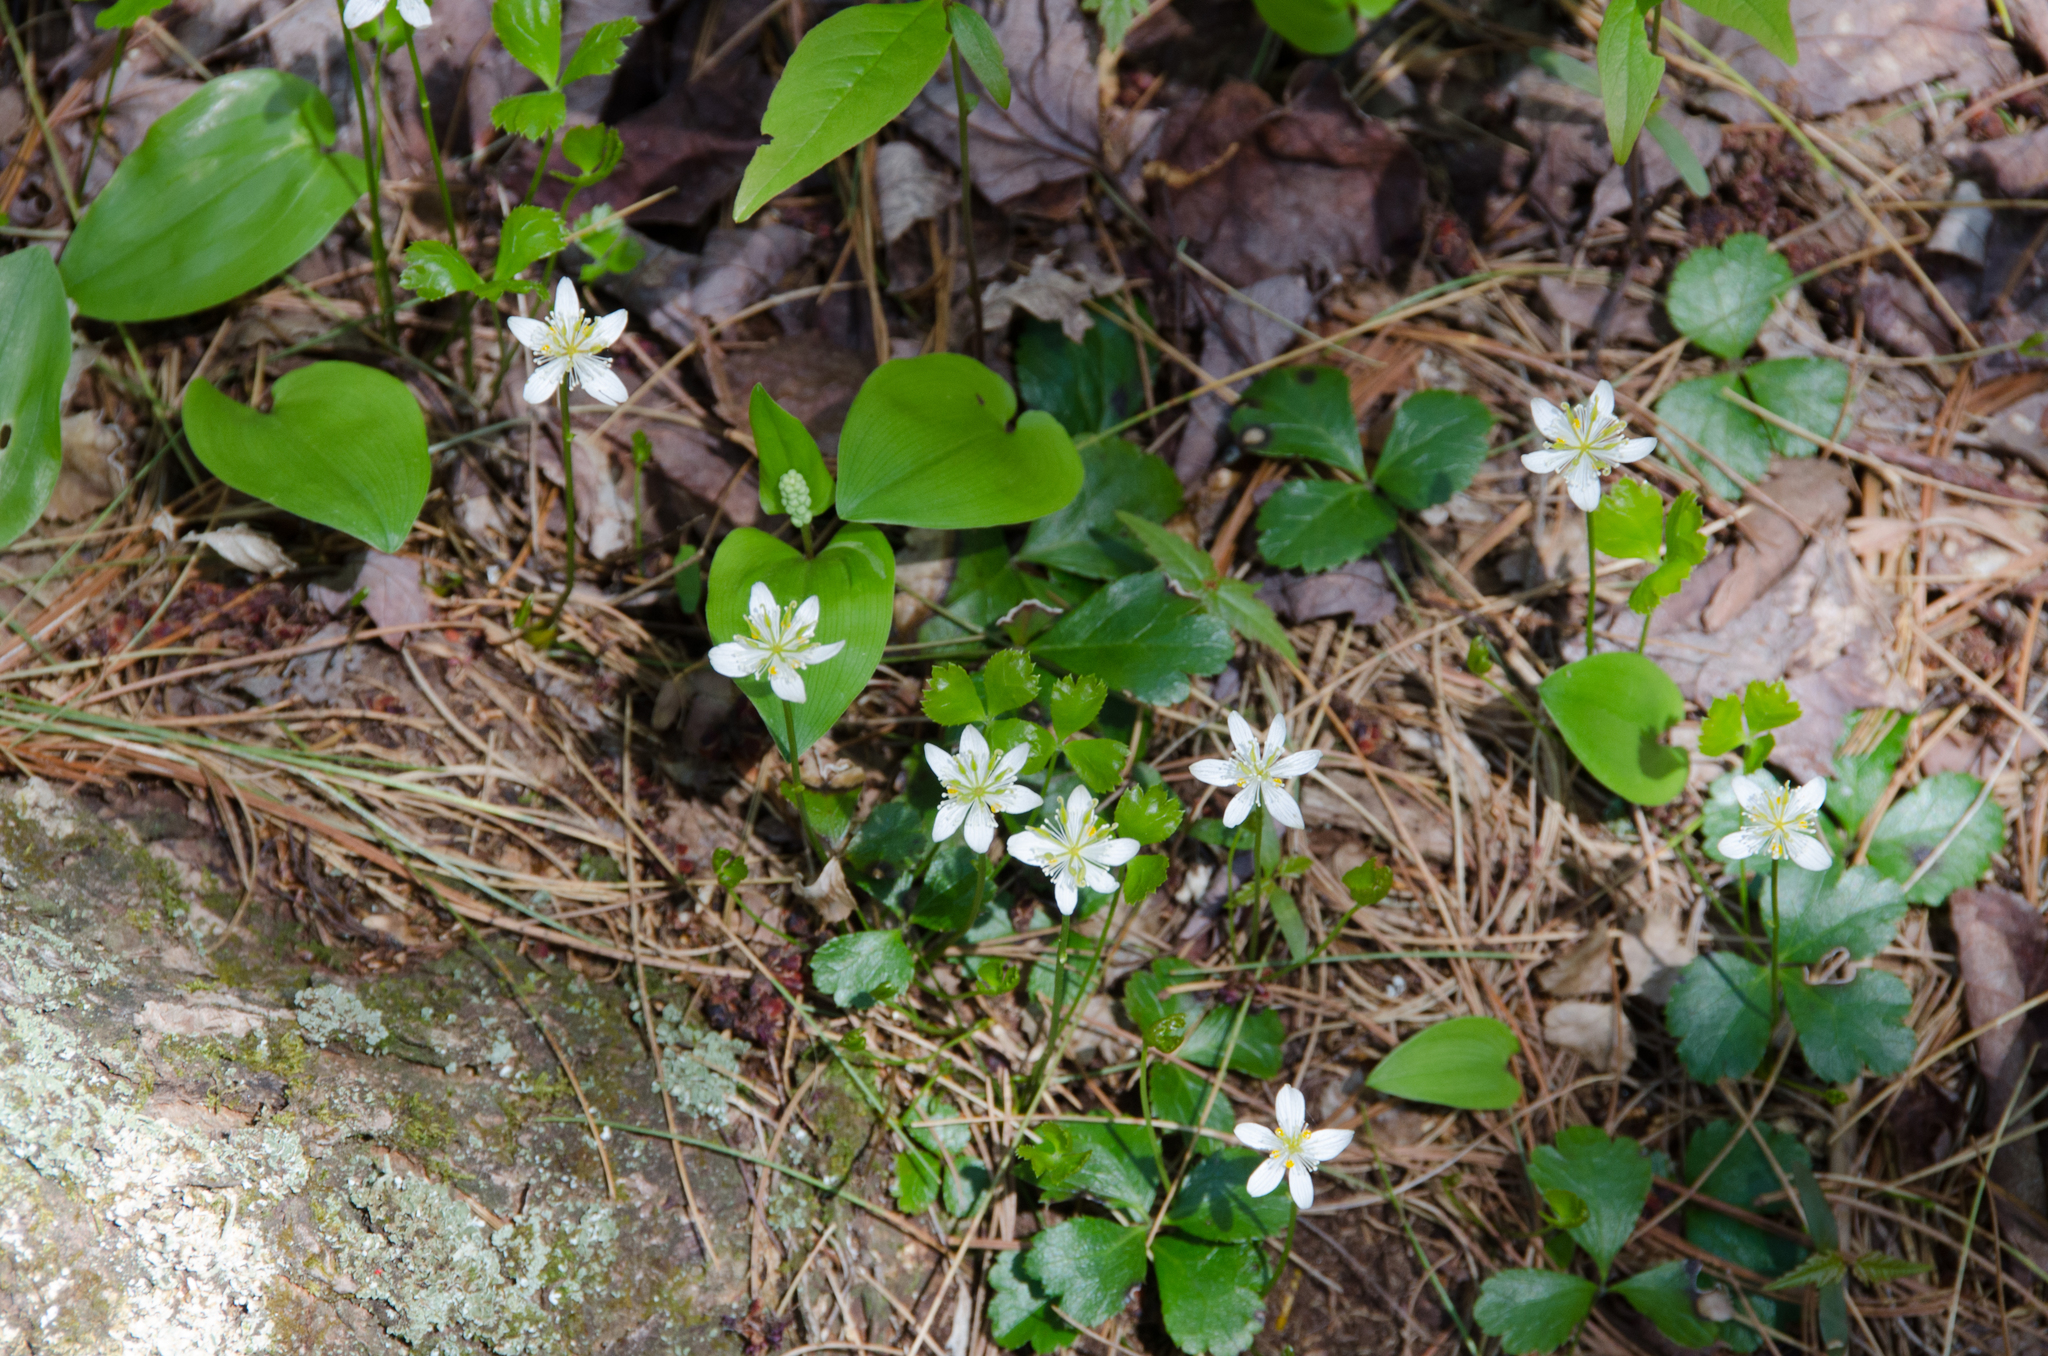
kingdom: Plantae
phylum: Tracheophyta
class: Magnoliopsida
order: Ranunculales
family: Ranunculaceae
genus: Coptis
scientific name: Coptis trifolia
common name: Canker-root
